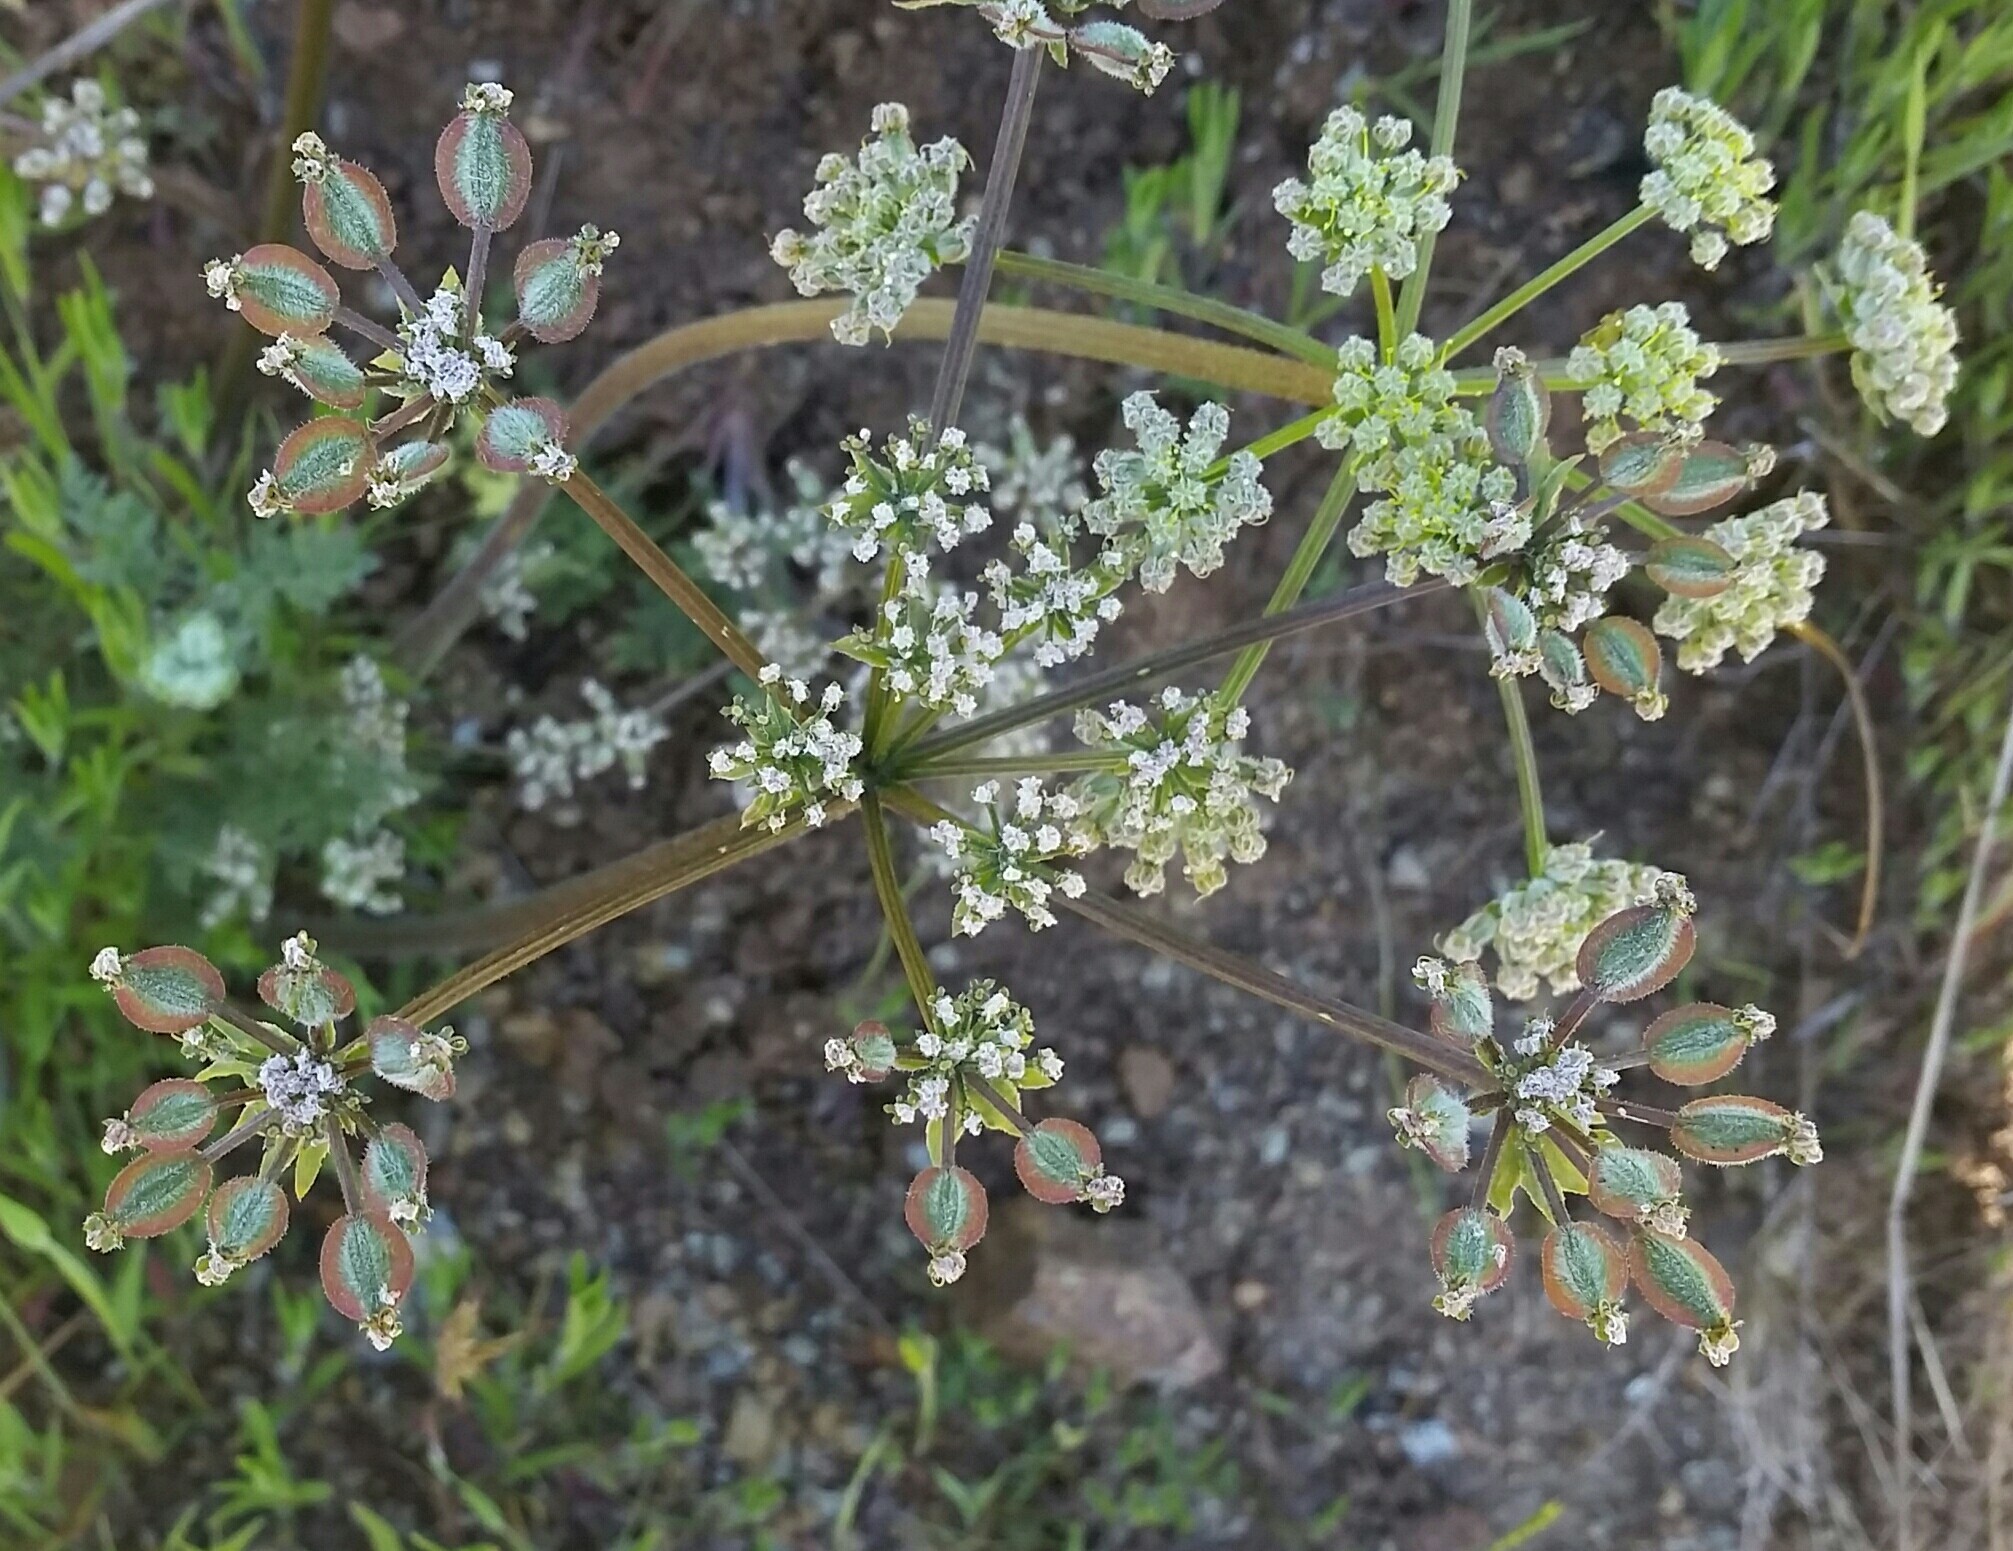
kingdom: Plantae
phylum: Tracheophyta
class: Magnoliopsida
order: Apiales
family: Apiaceae
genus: Lomatium
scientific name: Lomatium dasycarpum
